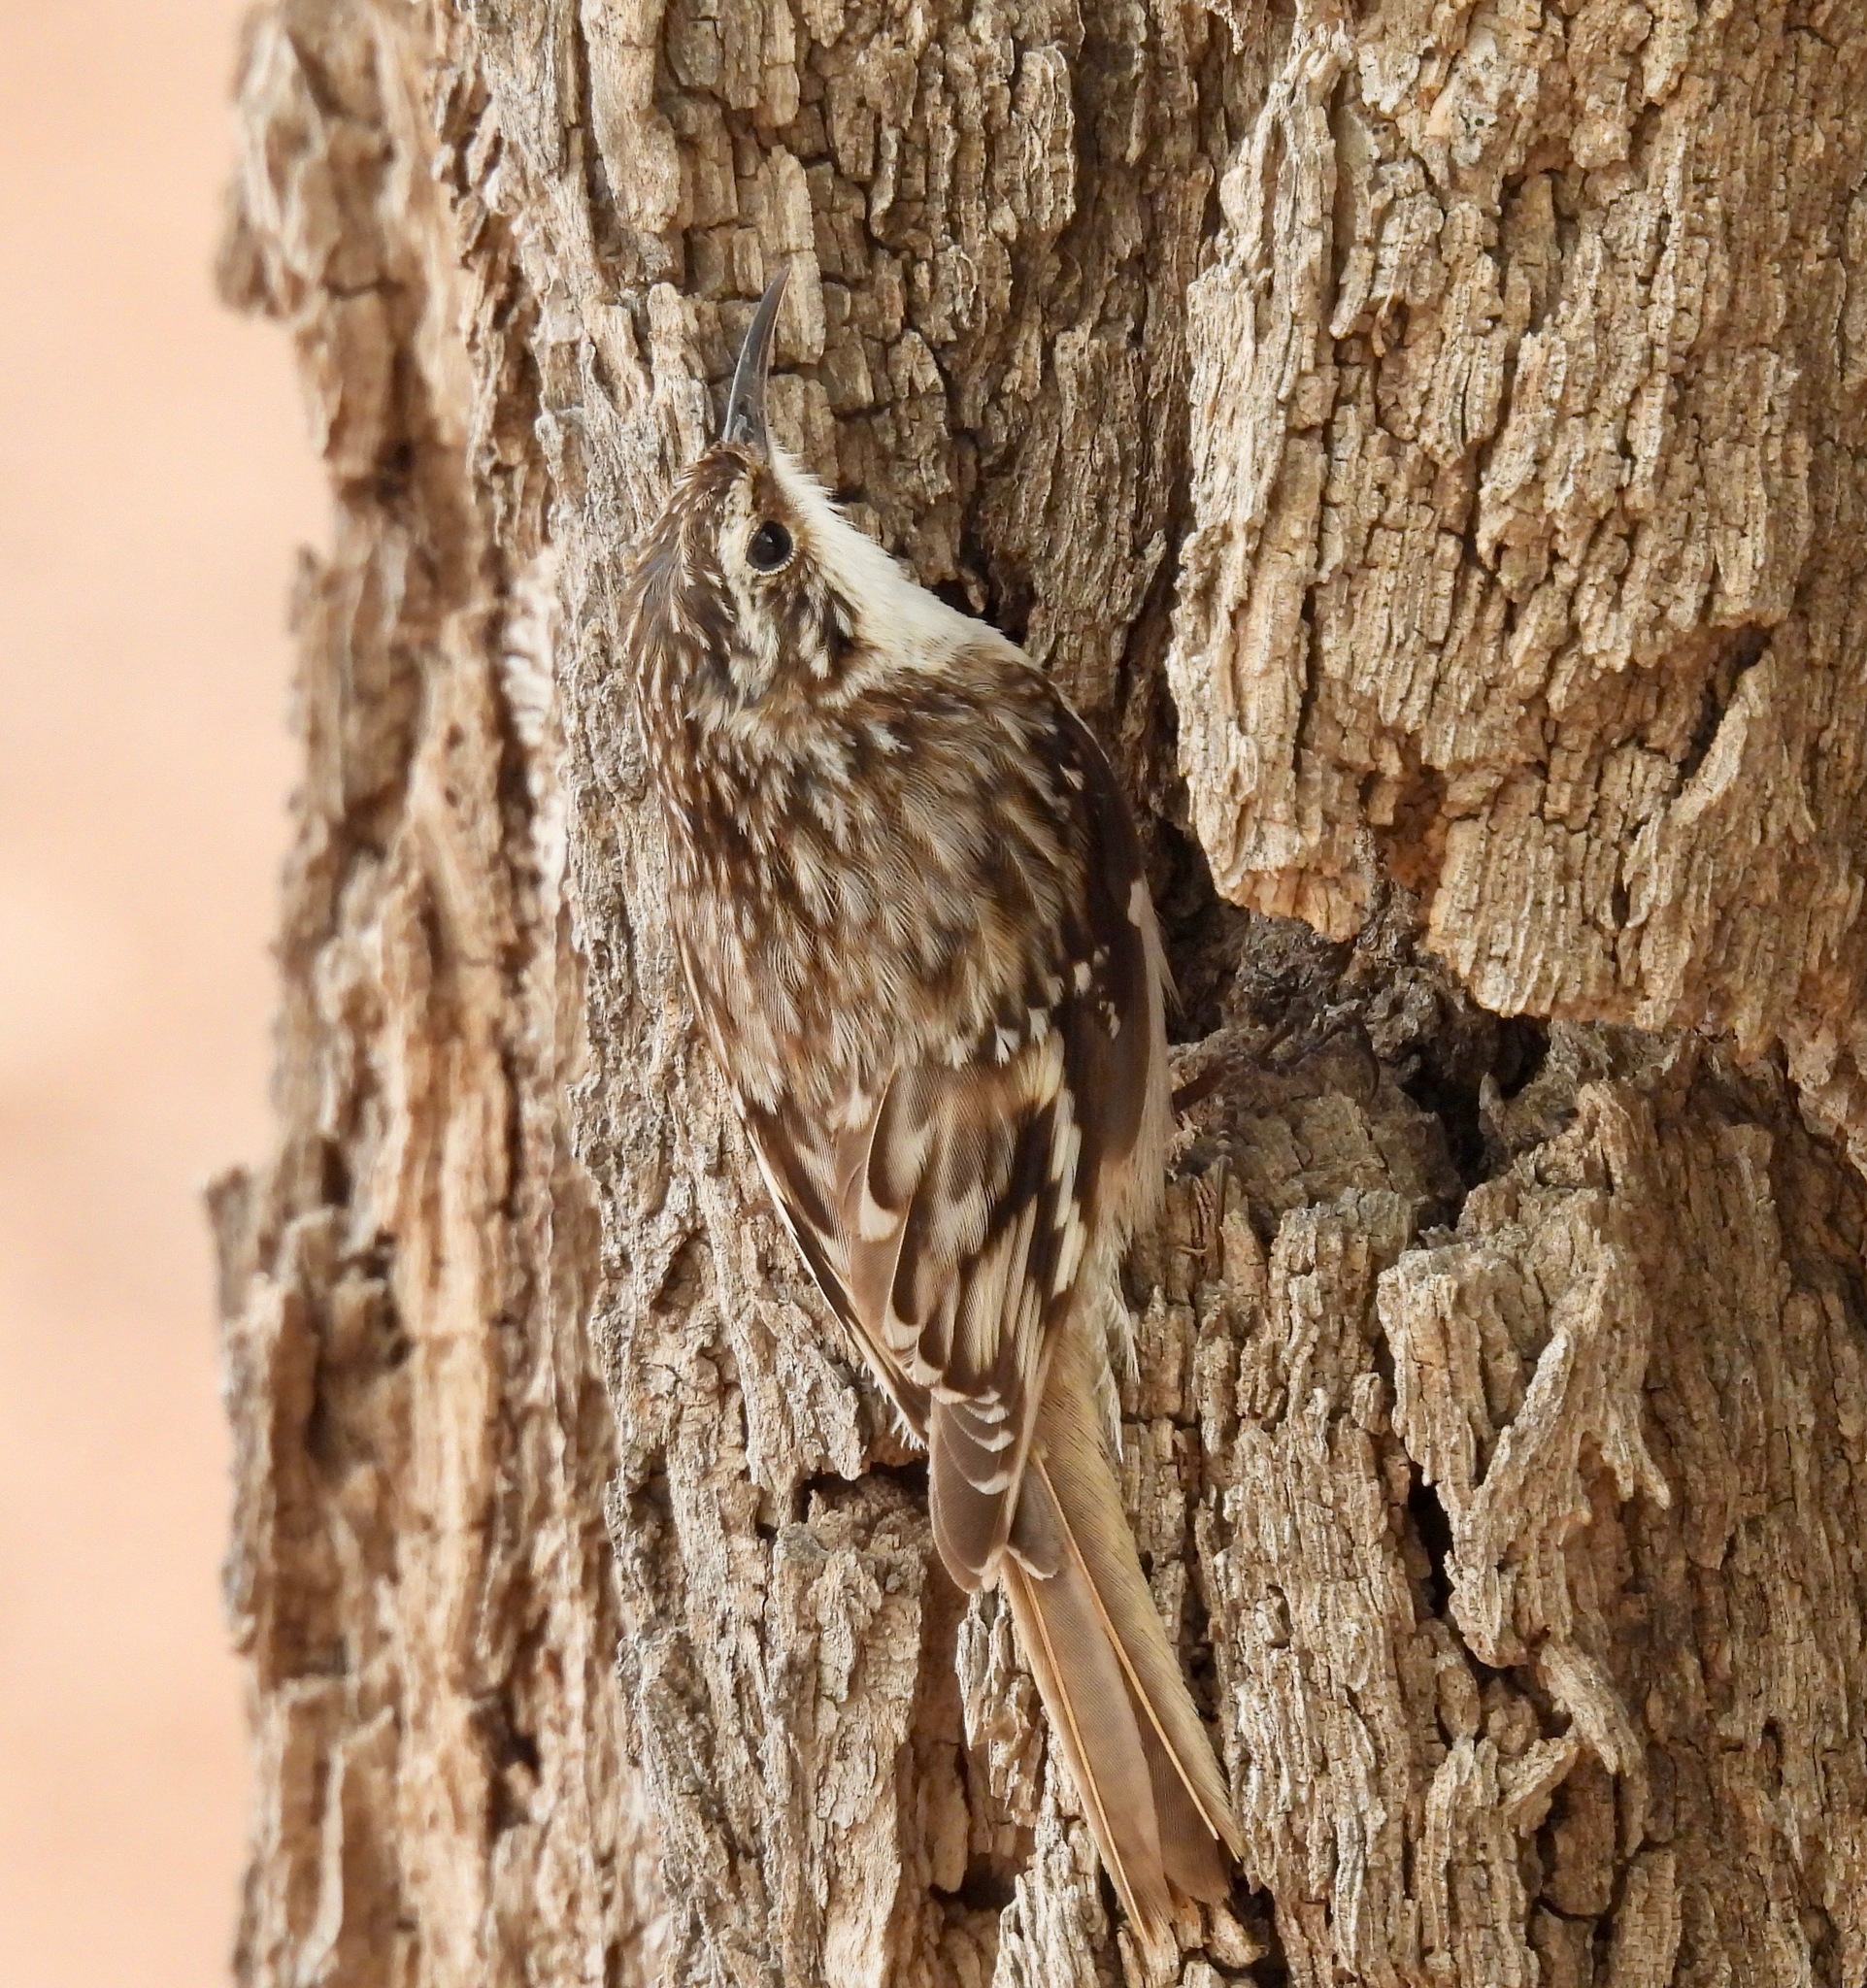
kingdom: Animalia
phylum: Chordata
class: Aves
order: Passeriformes
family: Certhiidae
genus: Certhia
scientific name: Certhia americana
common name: Brown creeper
